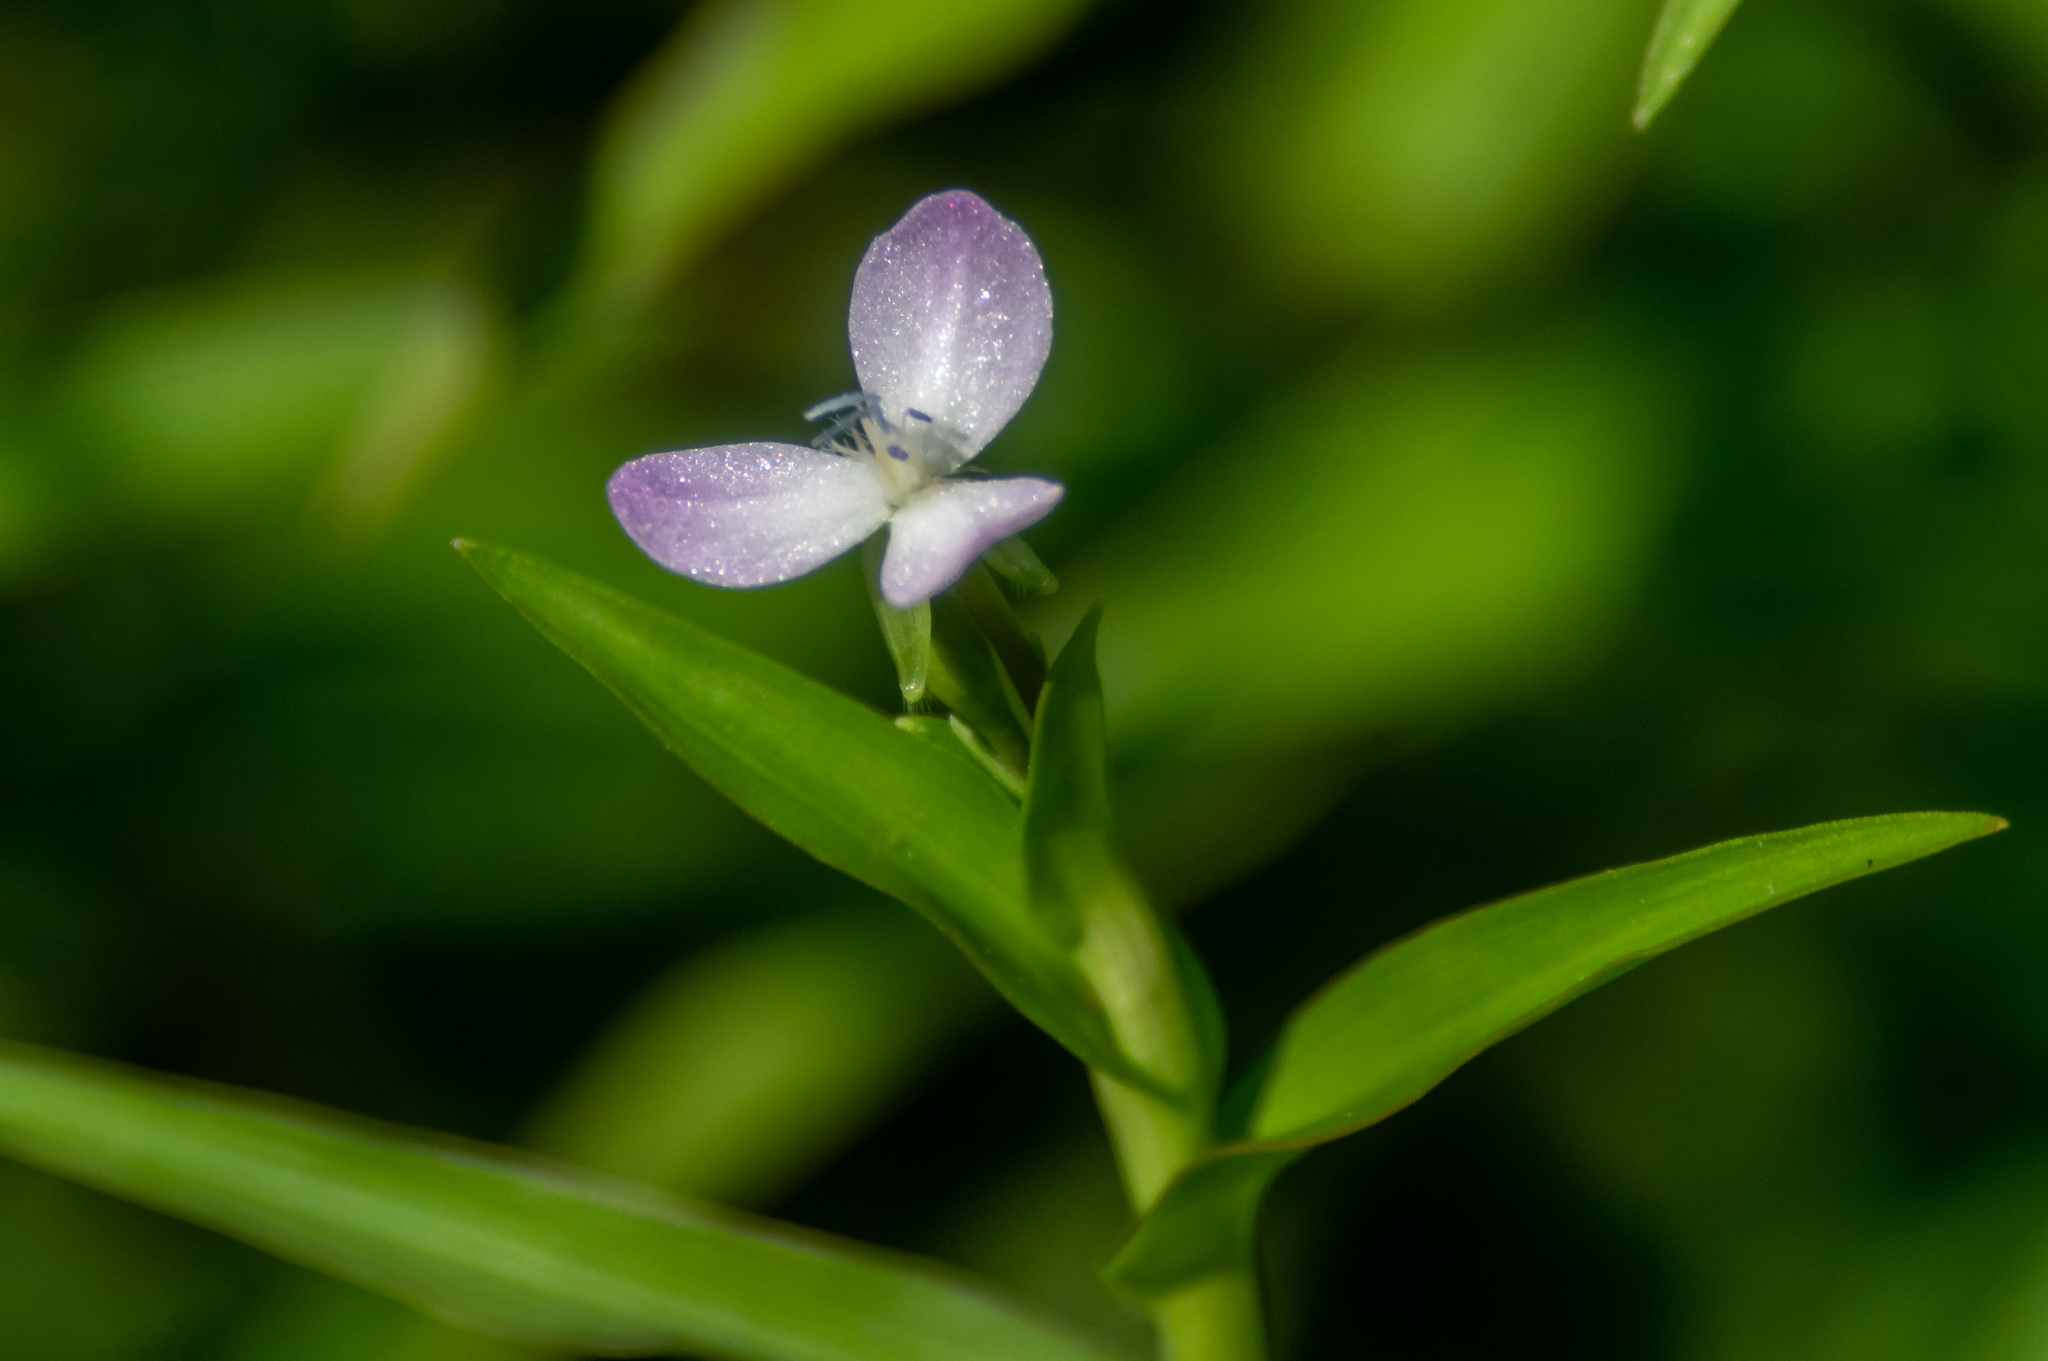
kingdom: Plantae
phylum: Tracheophyta
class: Liliopsida
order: Commelinales
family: Commelinaceae
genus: Murdannia
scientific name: Murdannia keisak
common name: Wartremoving herb
